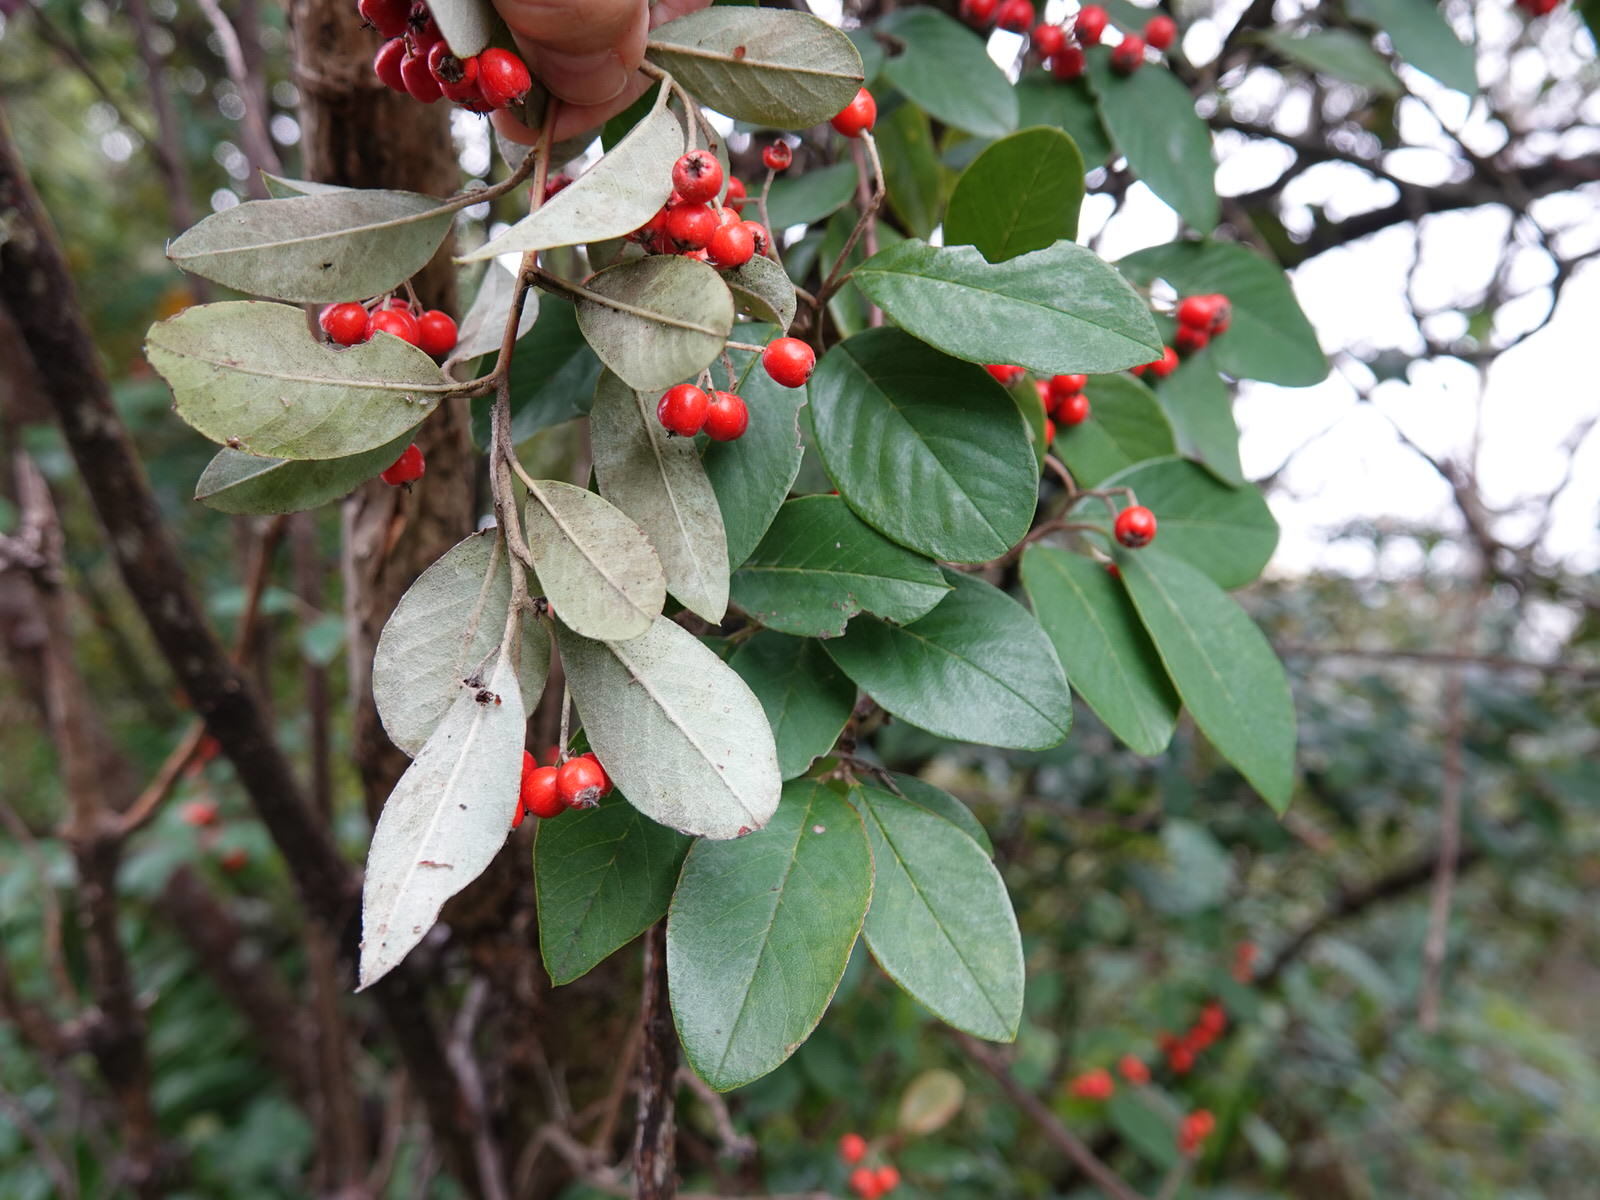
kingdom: Plantae
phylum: Tracheophyta
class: Magnoliopsida
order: Rosales
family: Rosaceae
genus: Cotoneaster
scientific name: Cotoneaster glaucophyllus
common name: Glaucous cotoneaster
